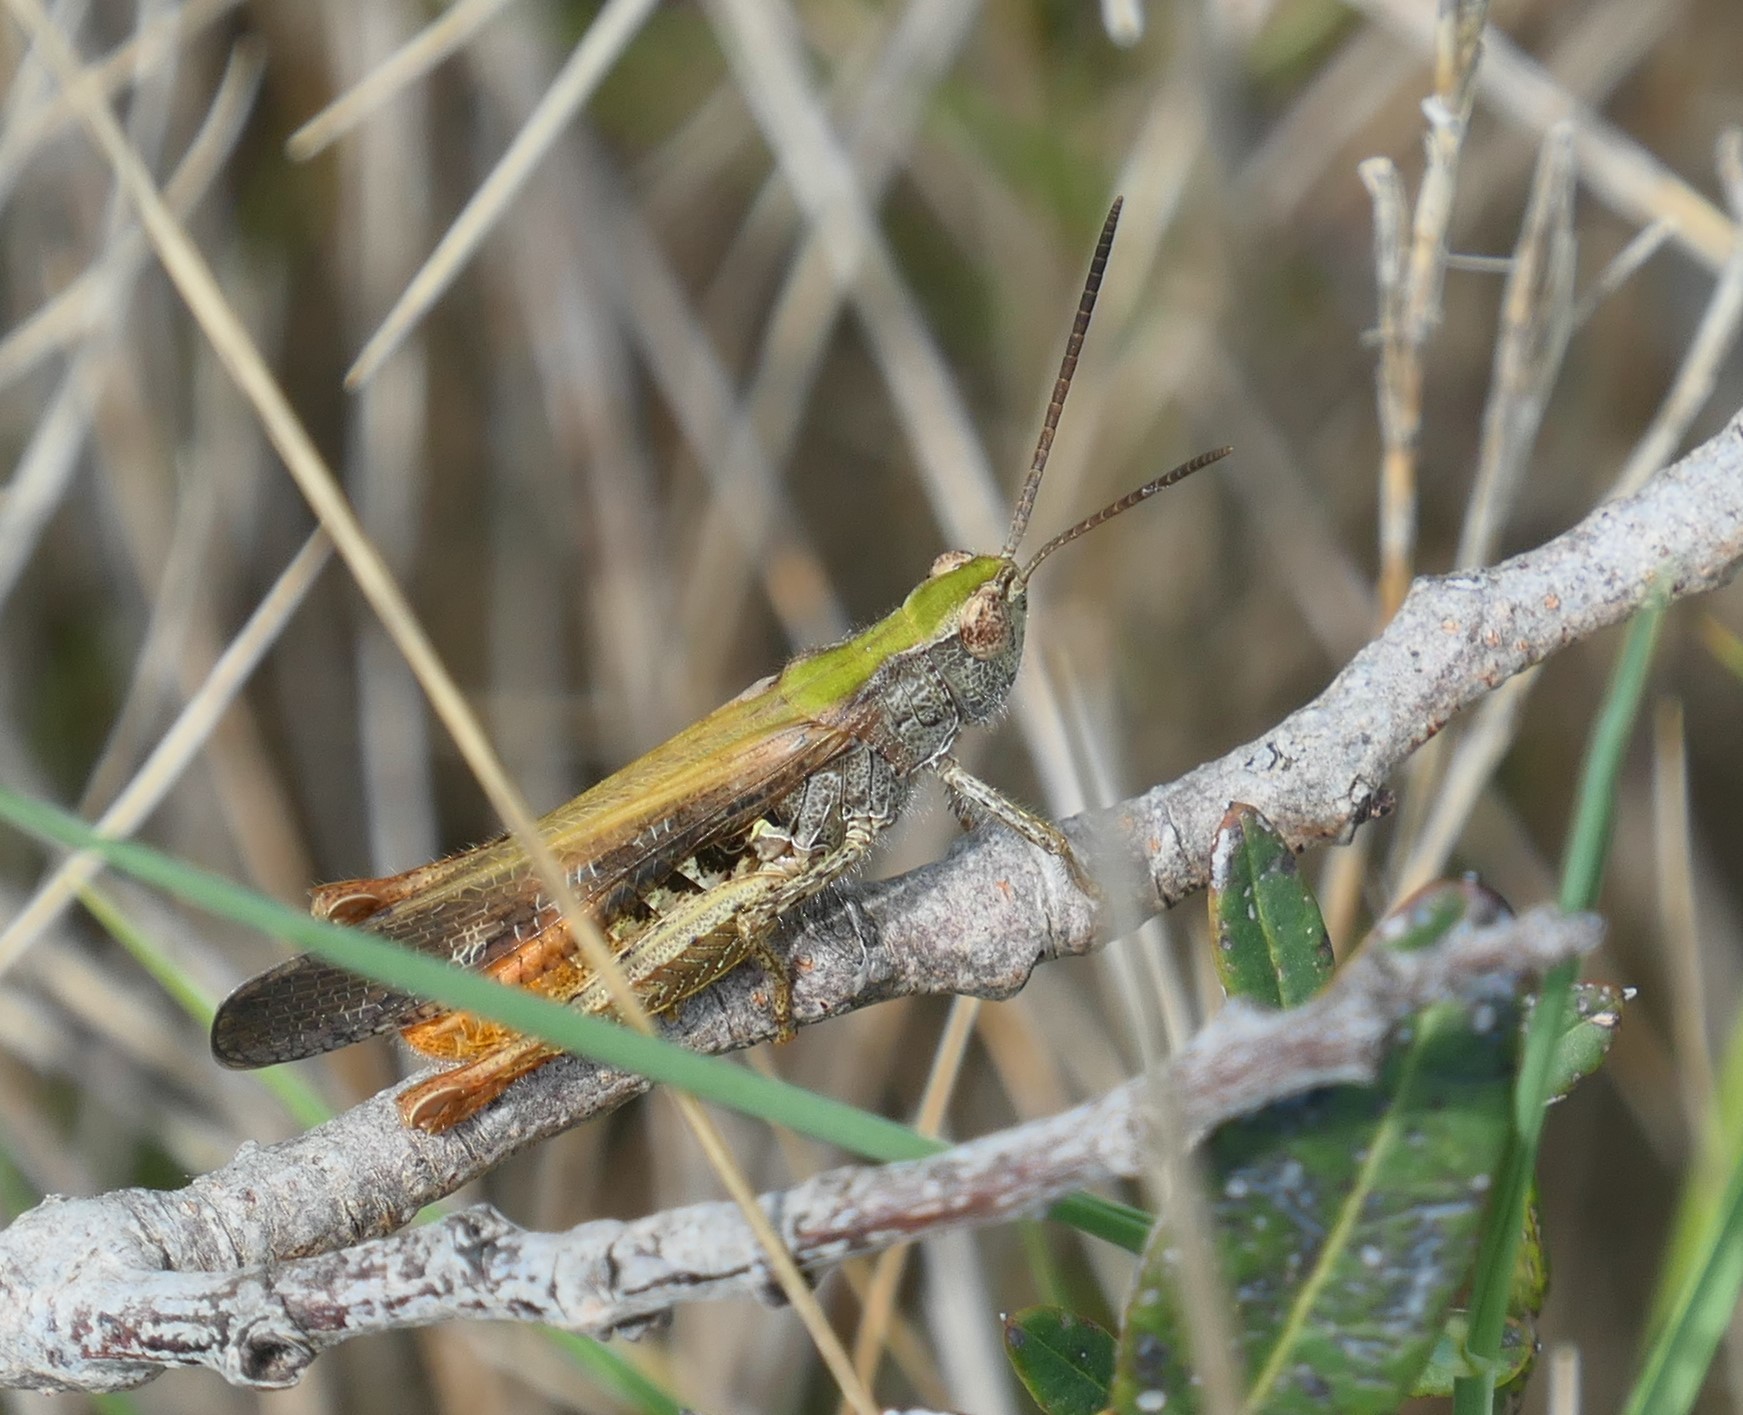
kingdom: Animalia
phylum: Arthropoda
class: Insecta
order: Orthoptera
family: Acrididae
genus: Chorthippus
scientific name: Chorthippus maritimus
